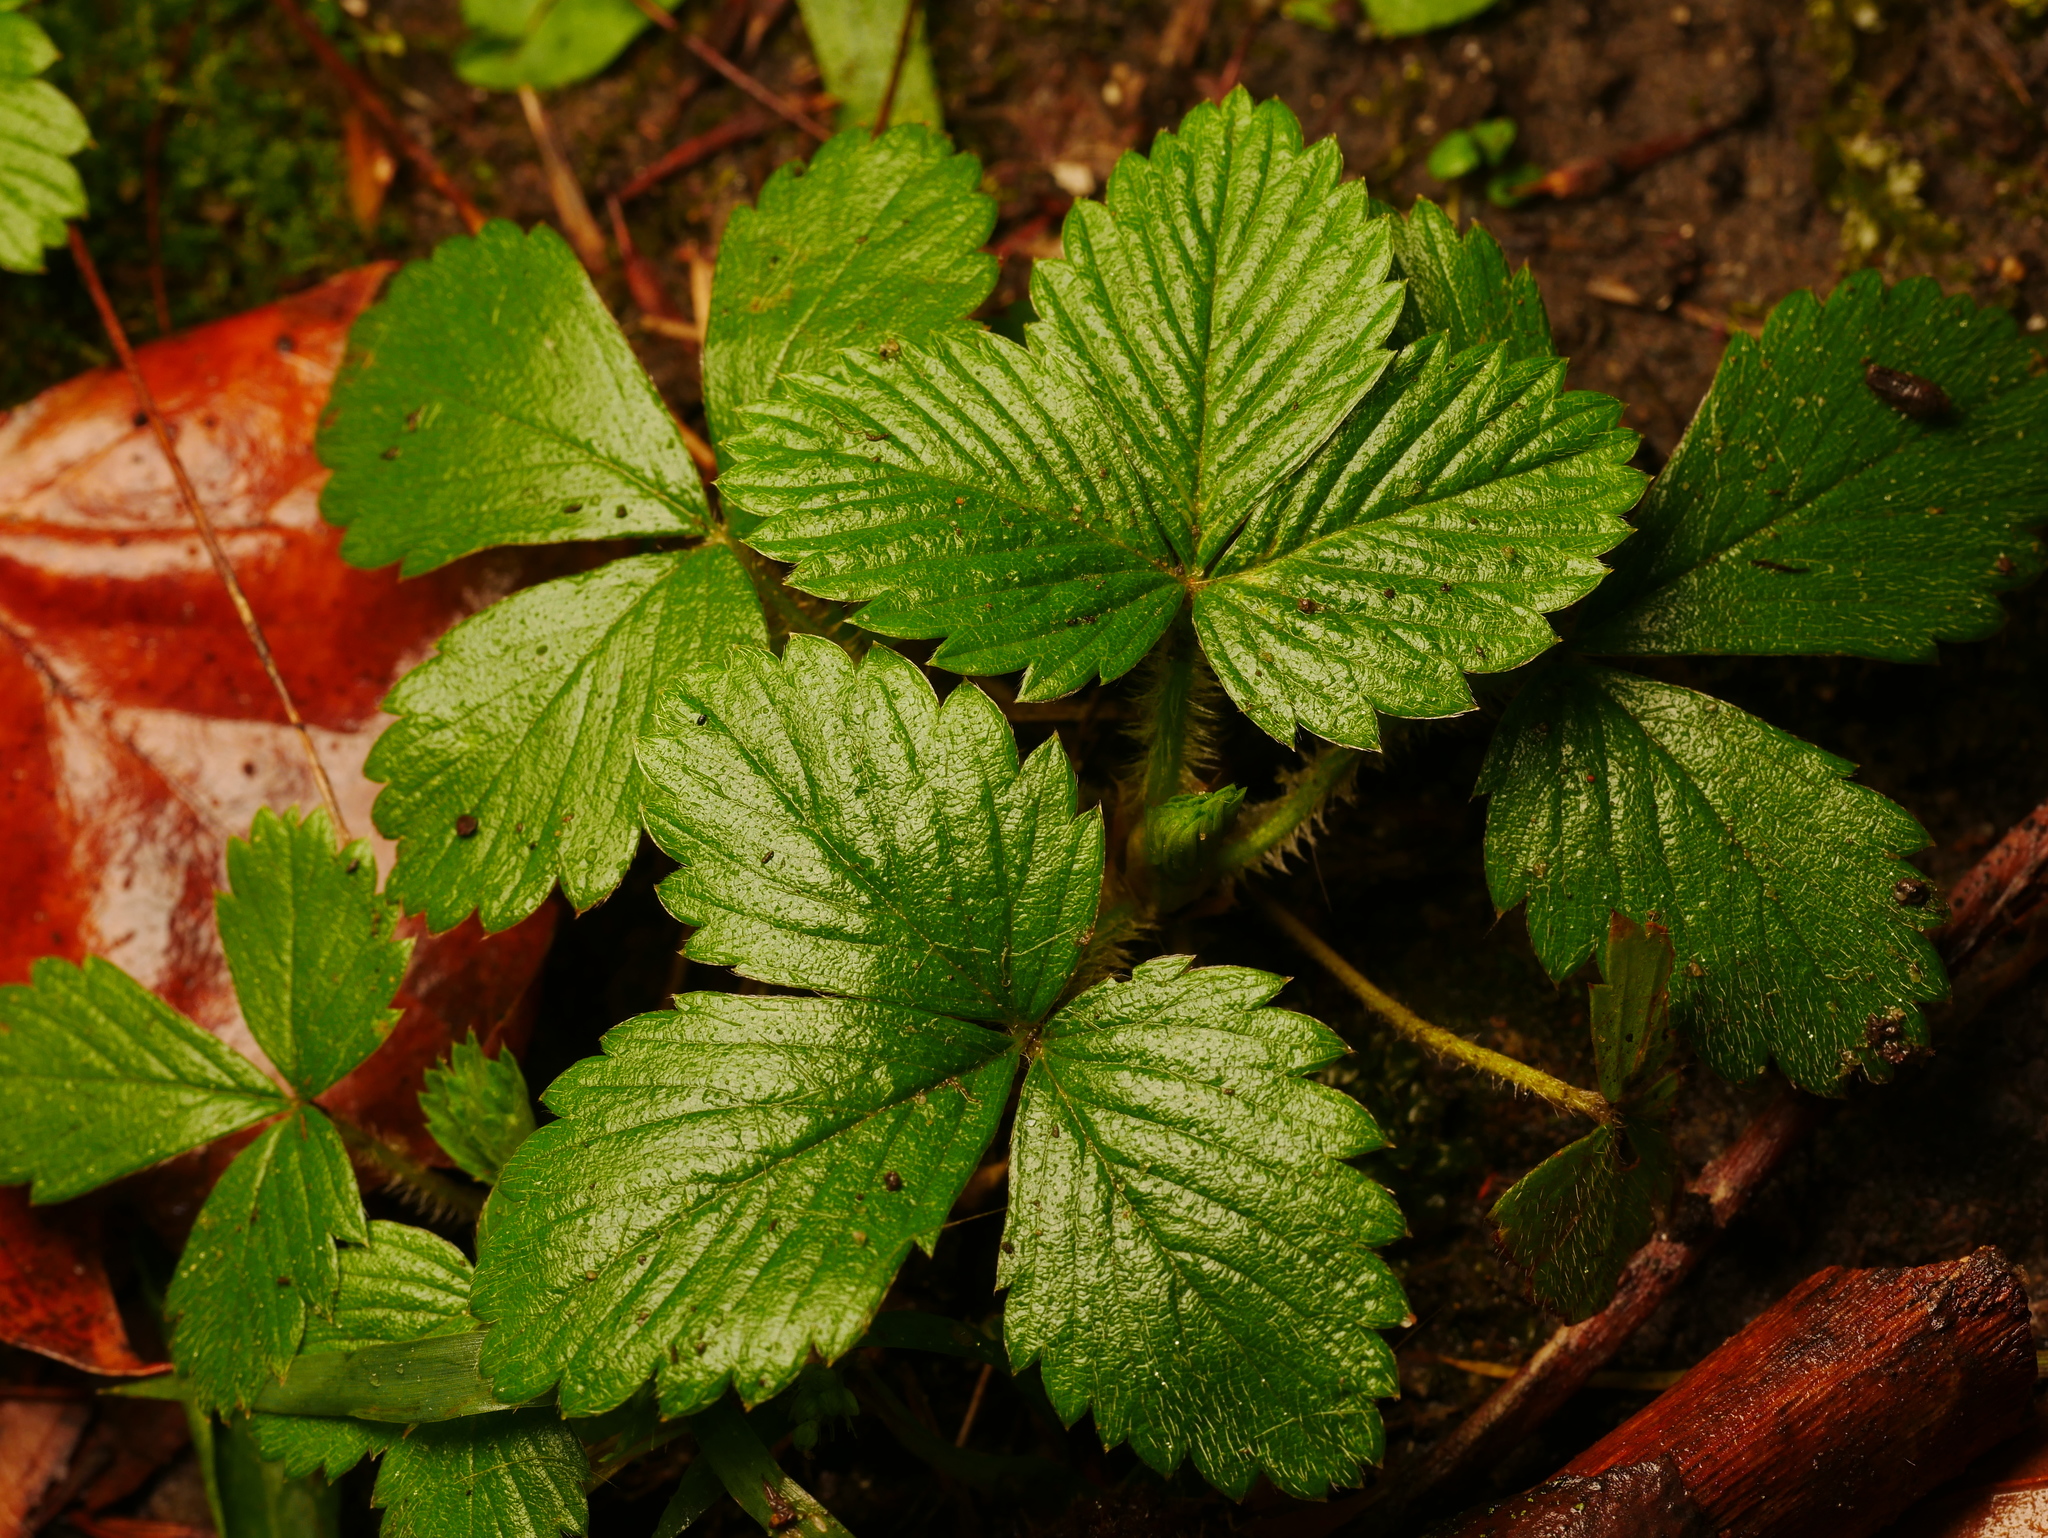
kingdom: Plantae
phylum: Tracheophyta
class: Magnoliopsida
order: Rosales
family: Rosaceae
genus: Fragaria
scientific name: Fragaria vesca
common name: Wild strawberry
